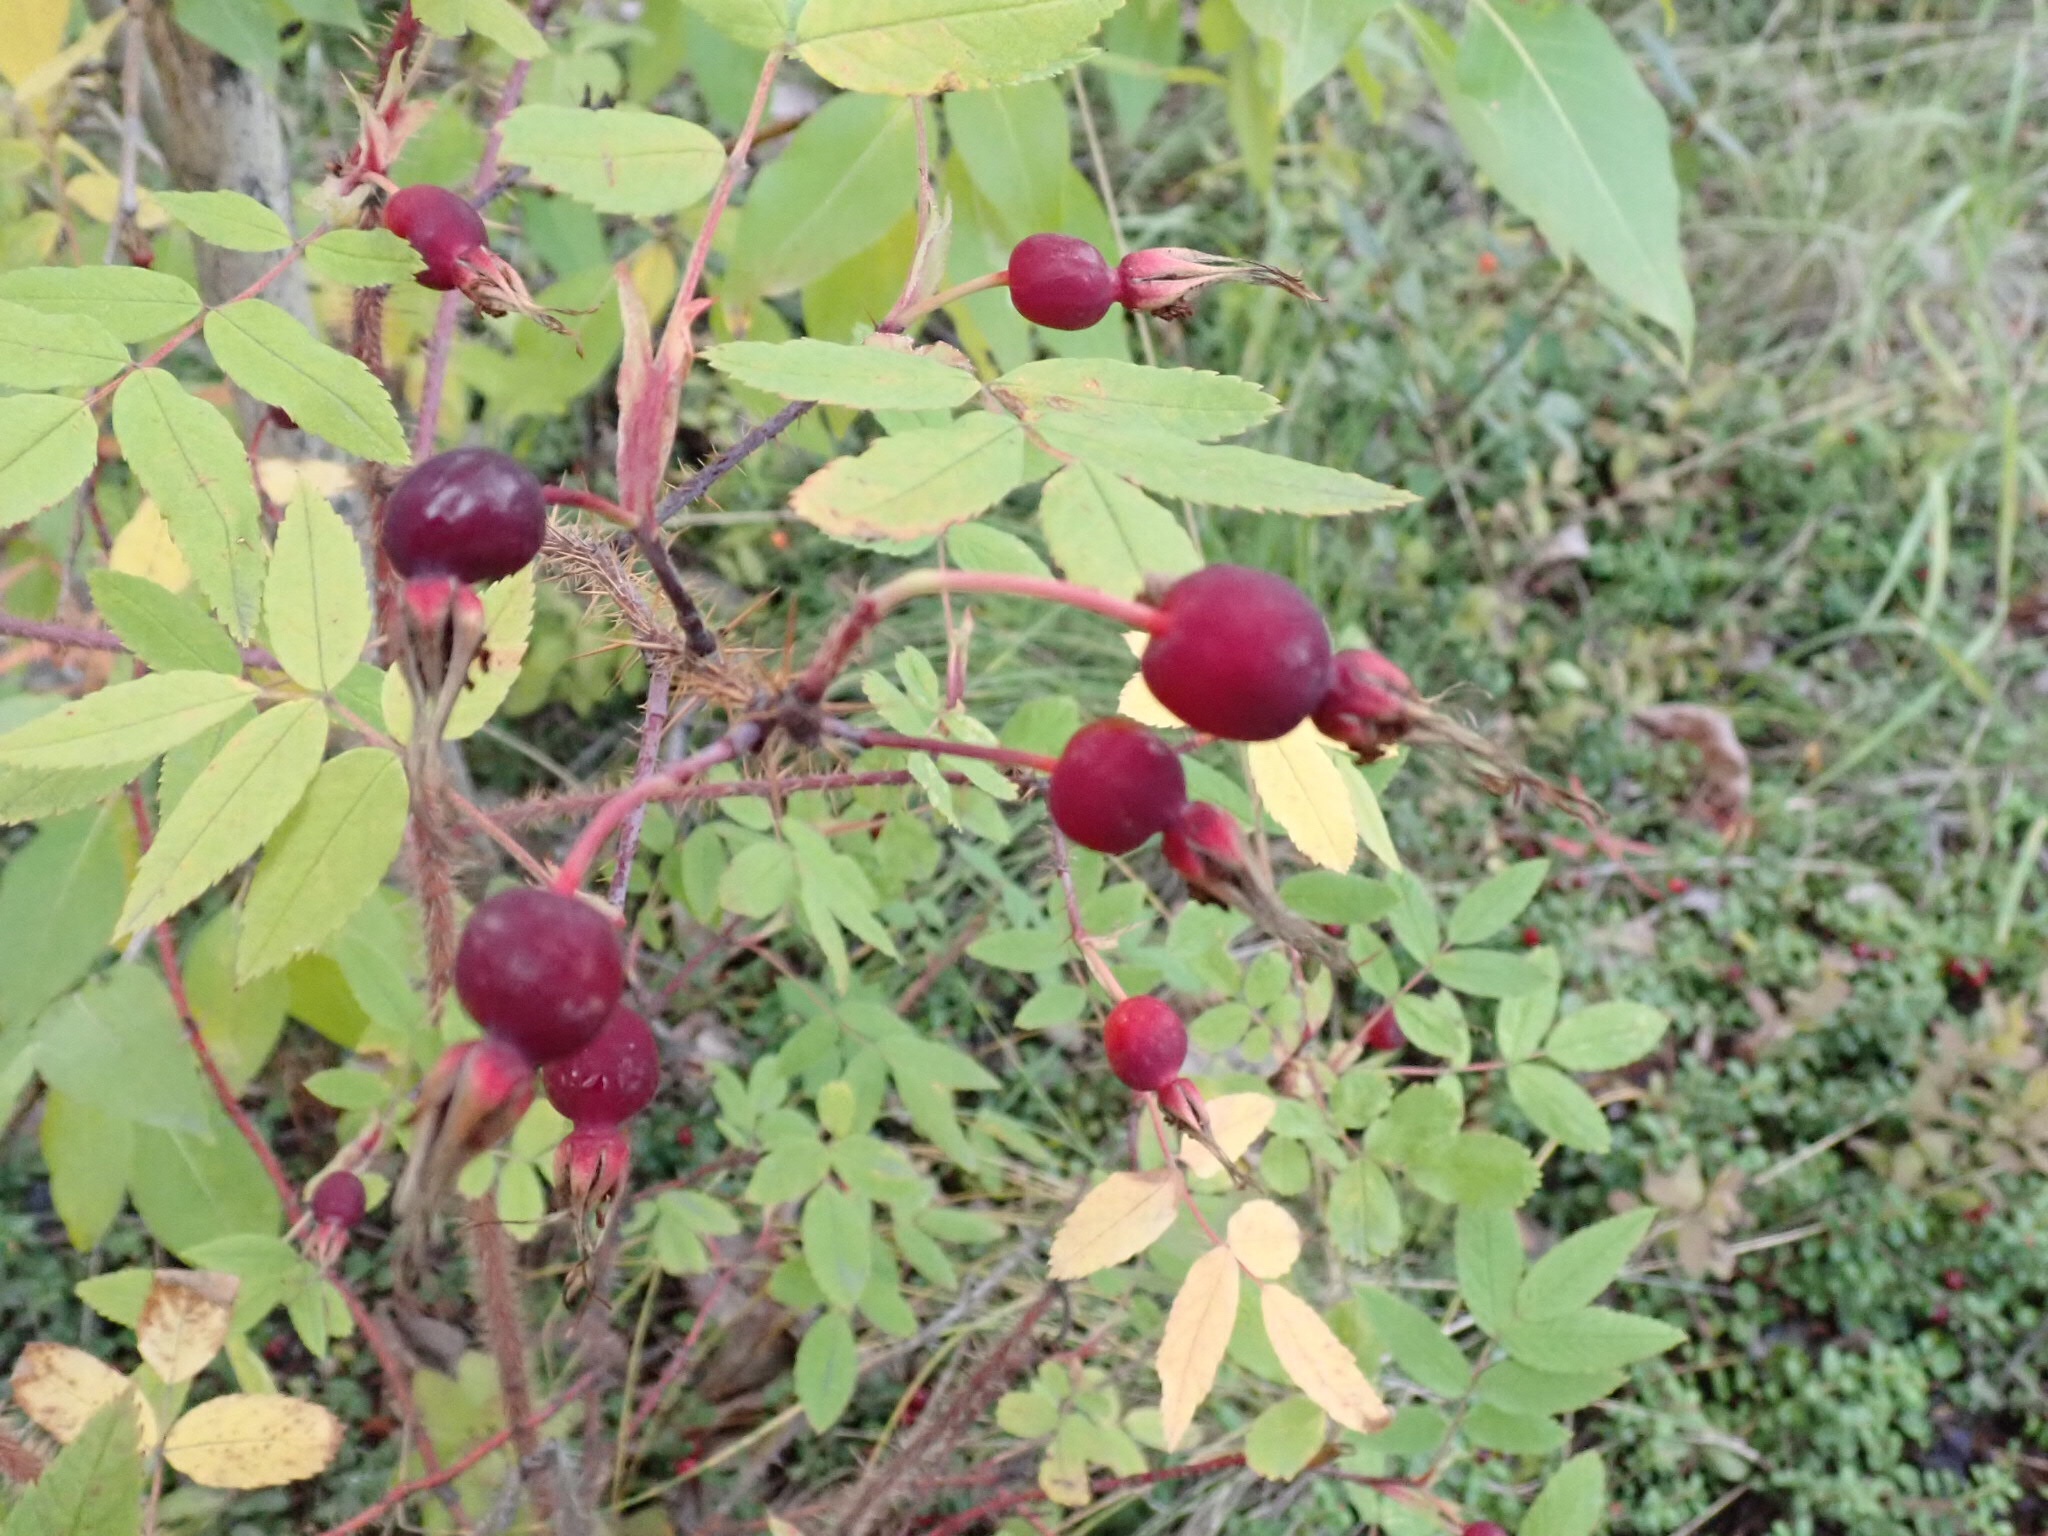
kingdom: Plantae
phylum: Tracheophyta
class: Magnoliopsida
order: Rosales
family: Rosaceae
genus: Rosa
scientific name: Rosa acicularis
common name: Prickly rose
